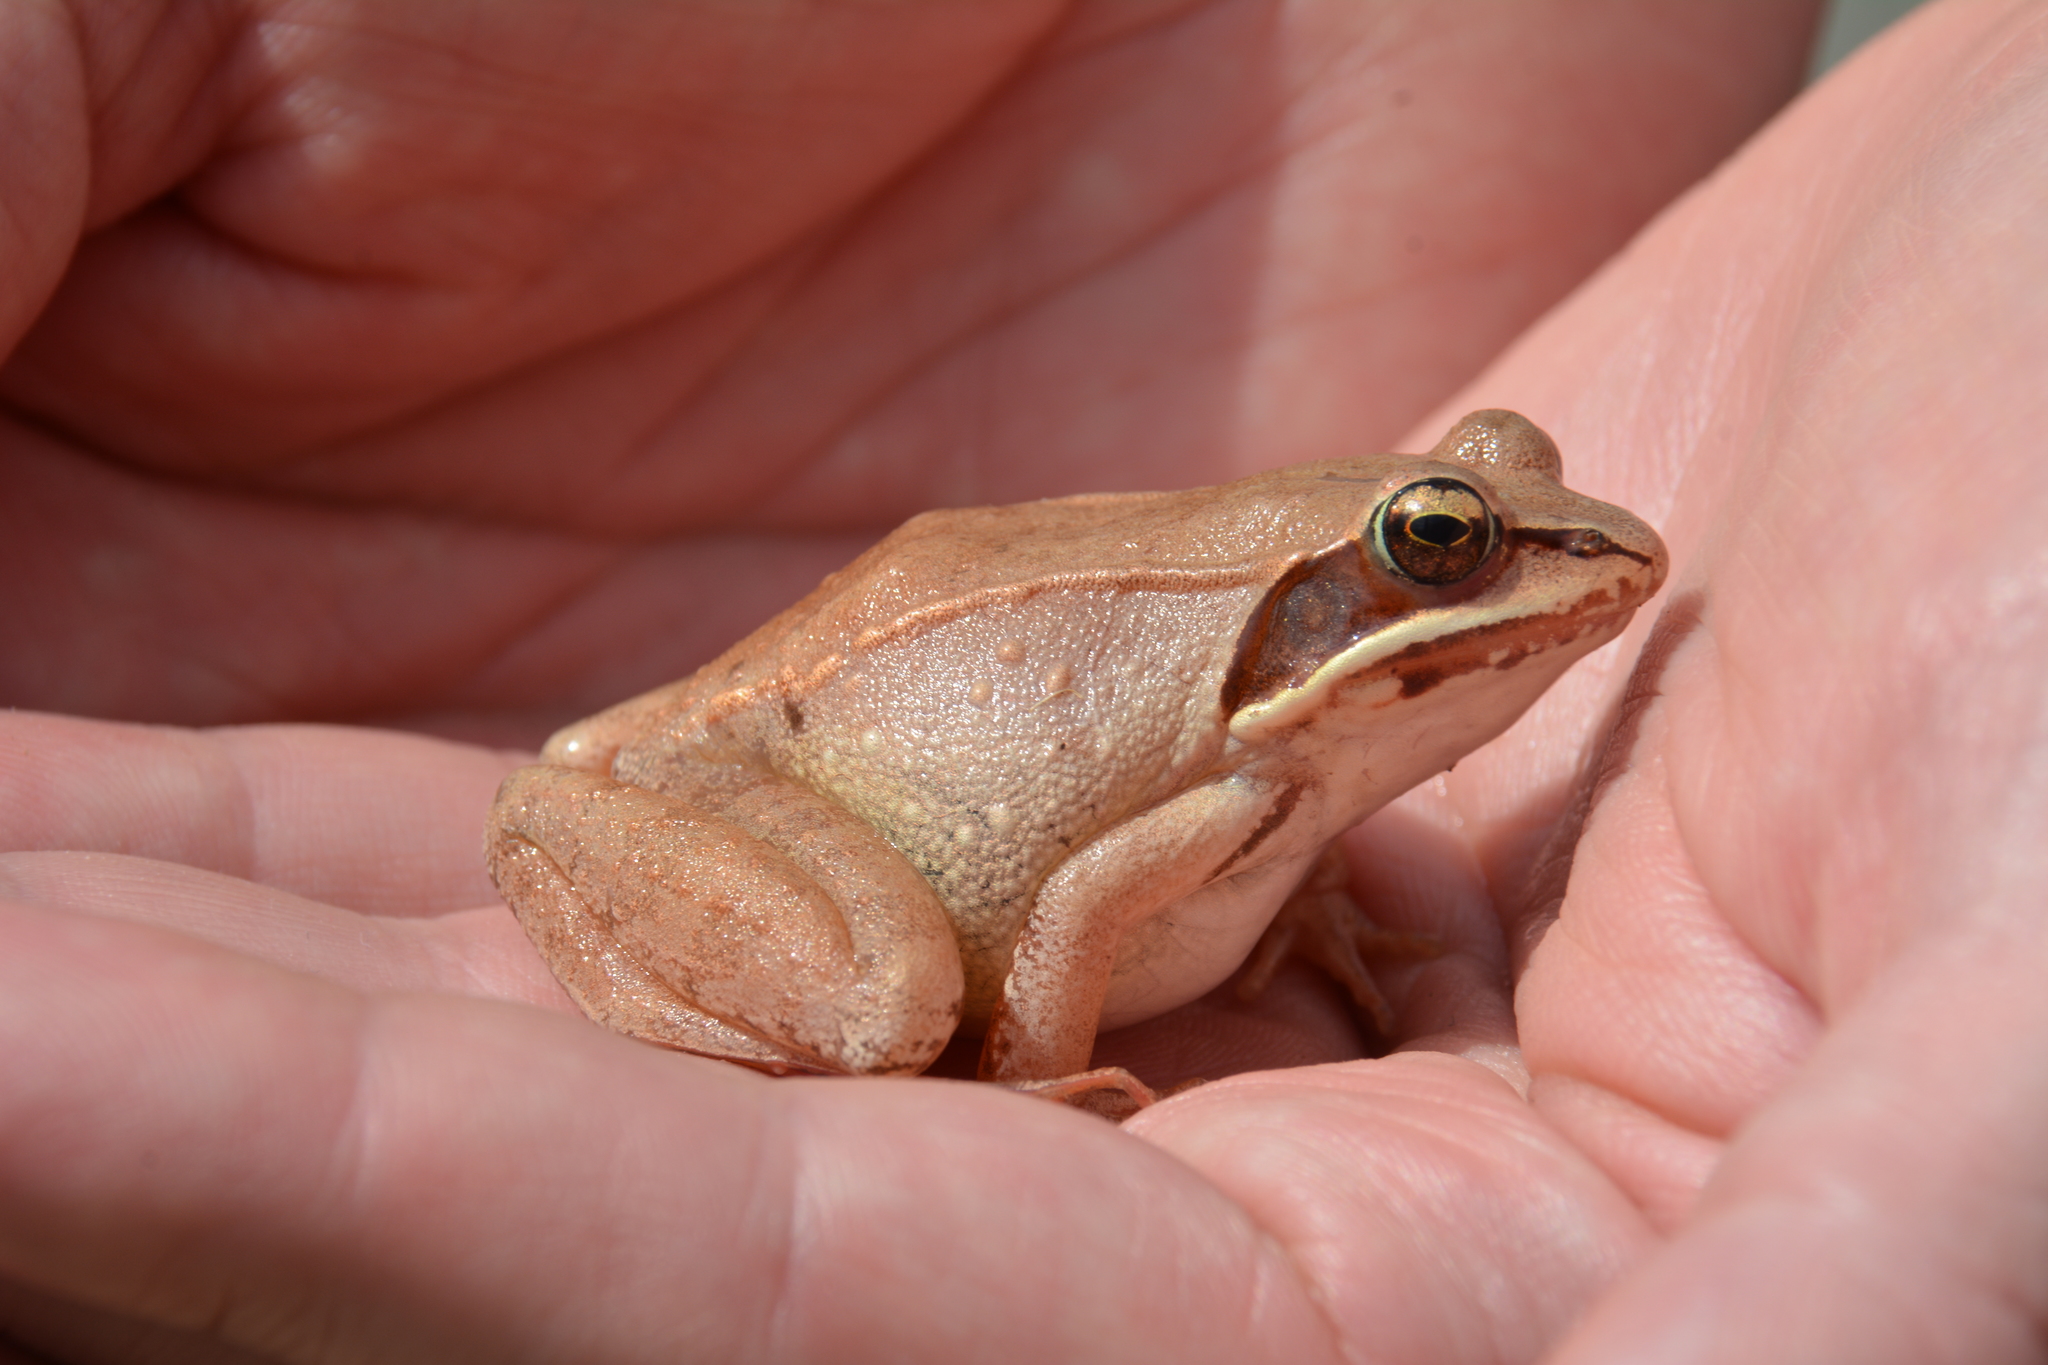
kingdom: Animalia
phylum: Chordata
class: Amphibia
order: Anura
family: Ranidae
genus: Lithobates
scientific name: Lithobates sylvaticus
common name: Wood frog
